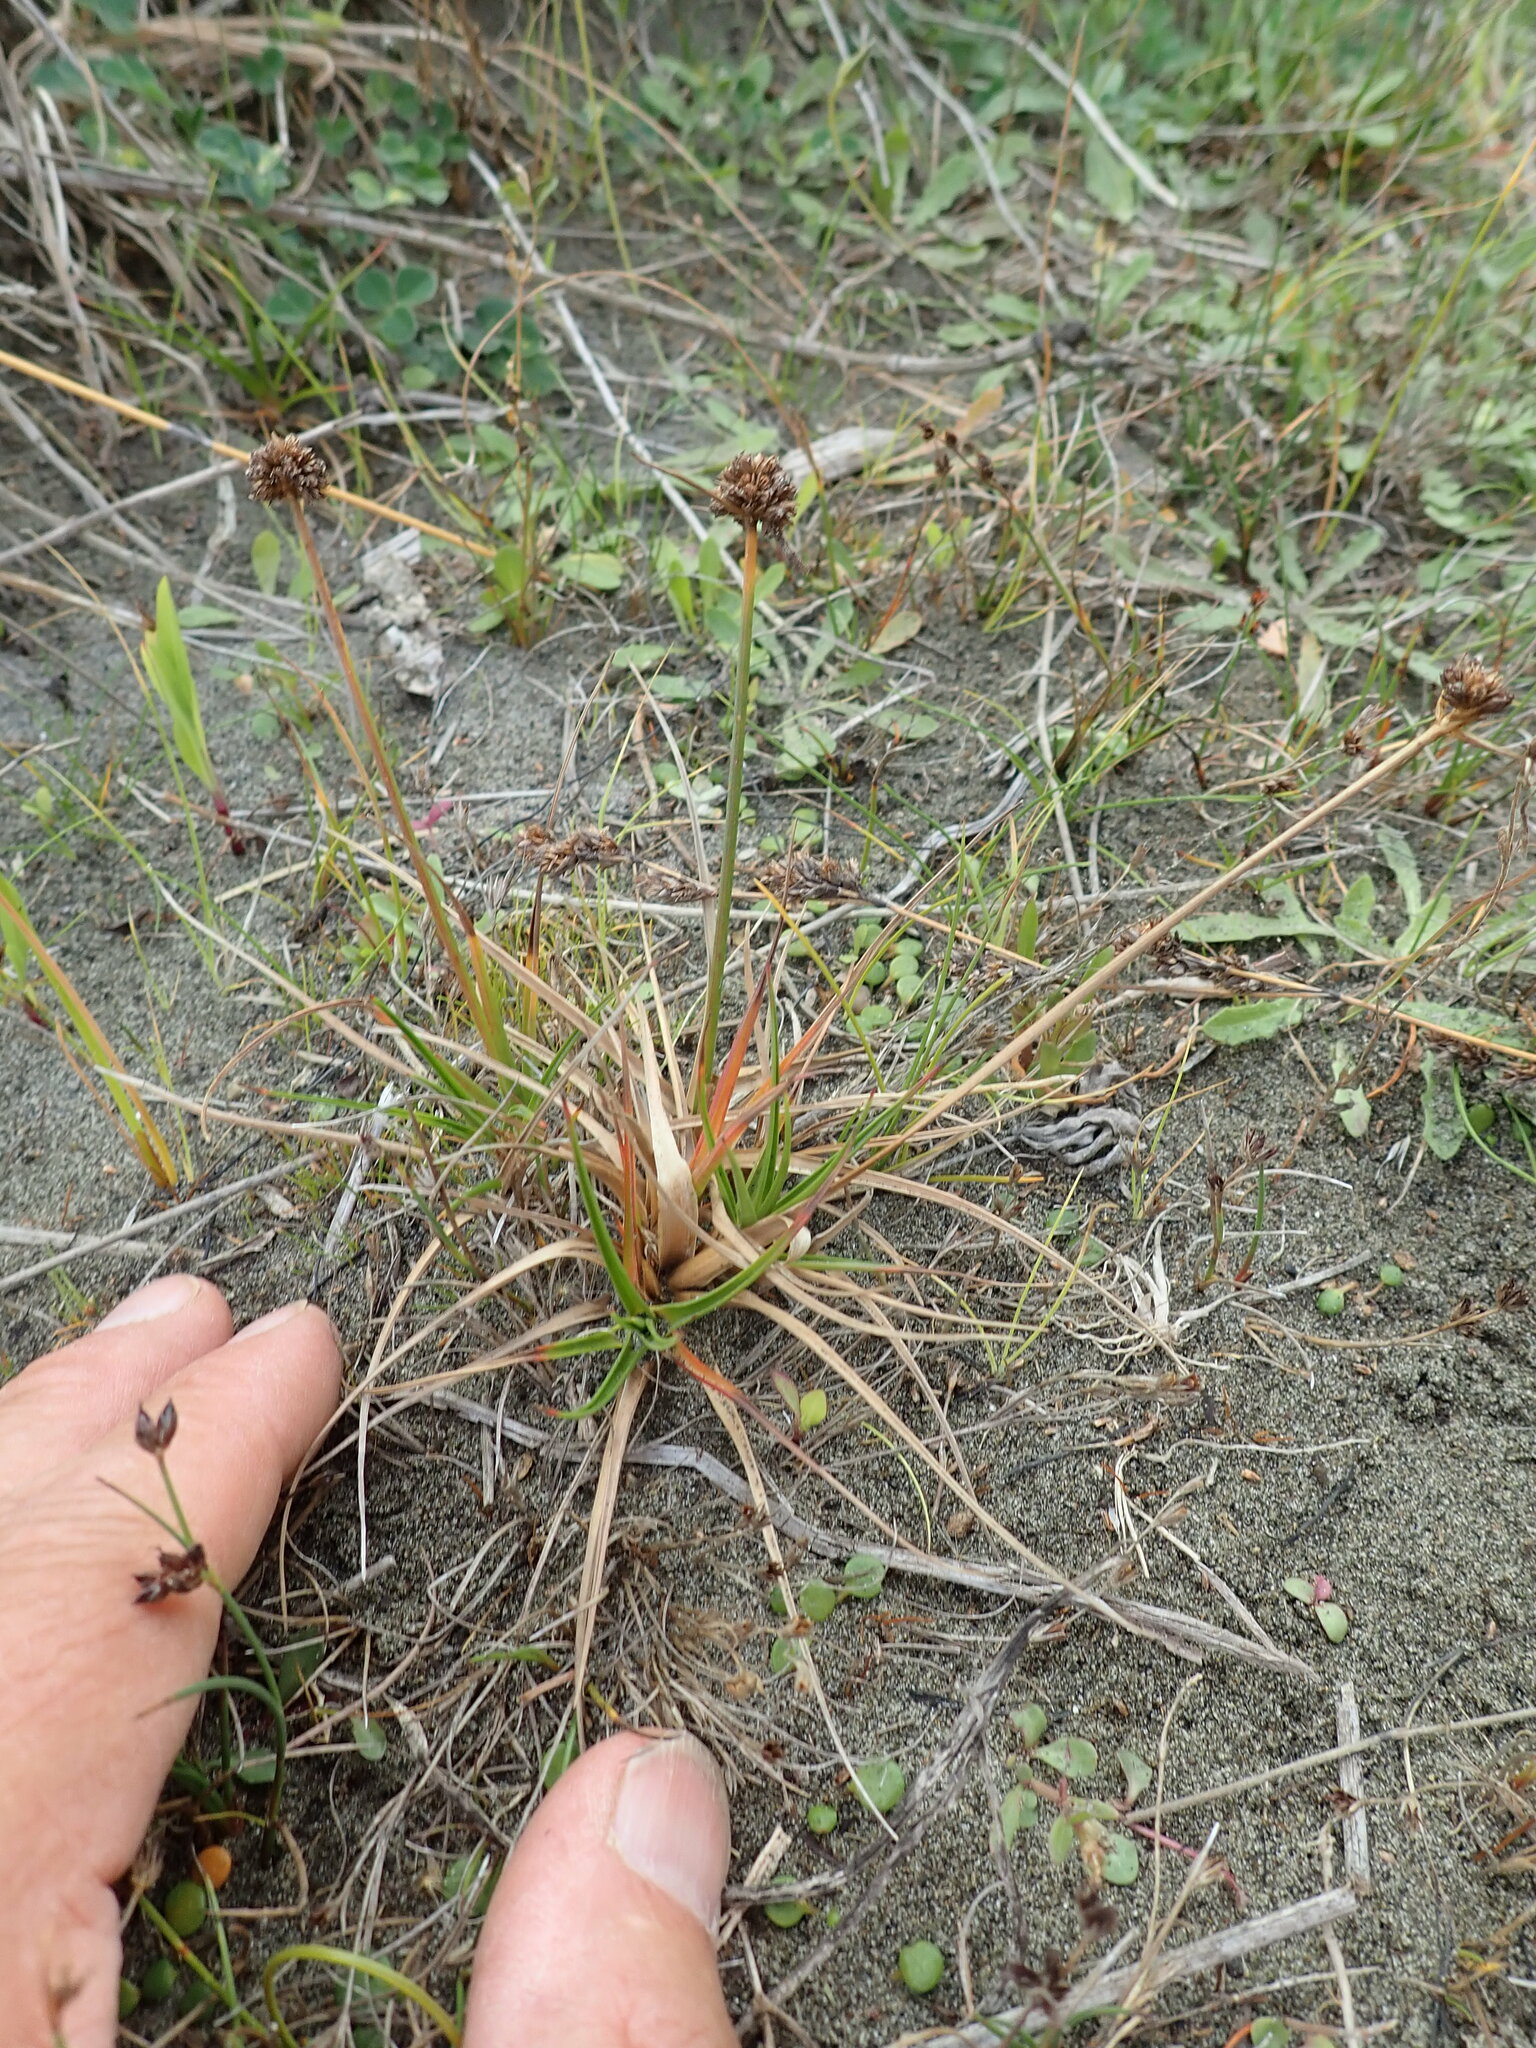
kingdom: Plantae
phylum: Tracheophyta
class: Liliopsida
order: Poales
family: Juncaceae
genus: Juncus
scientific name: Juncus caespiticius
